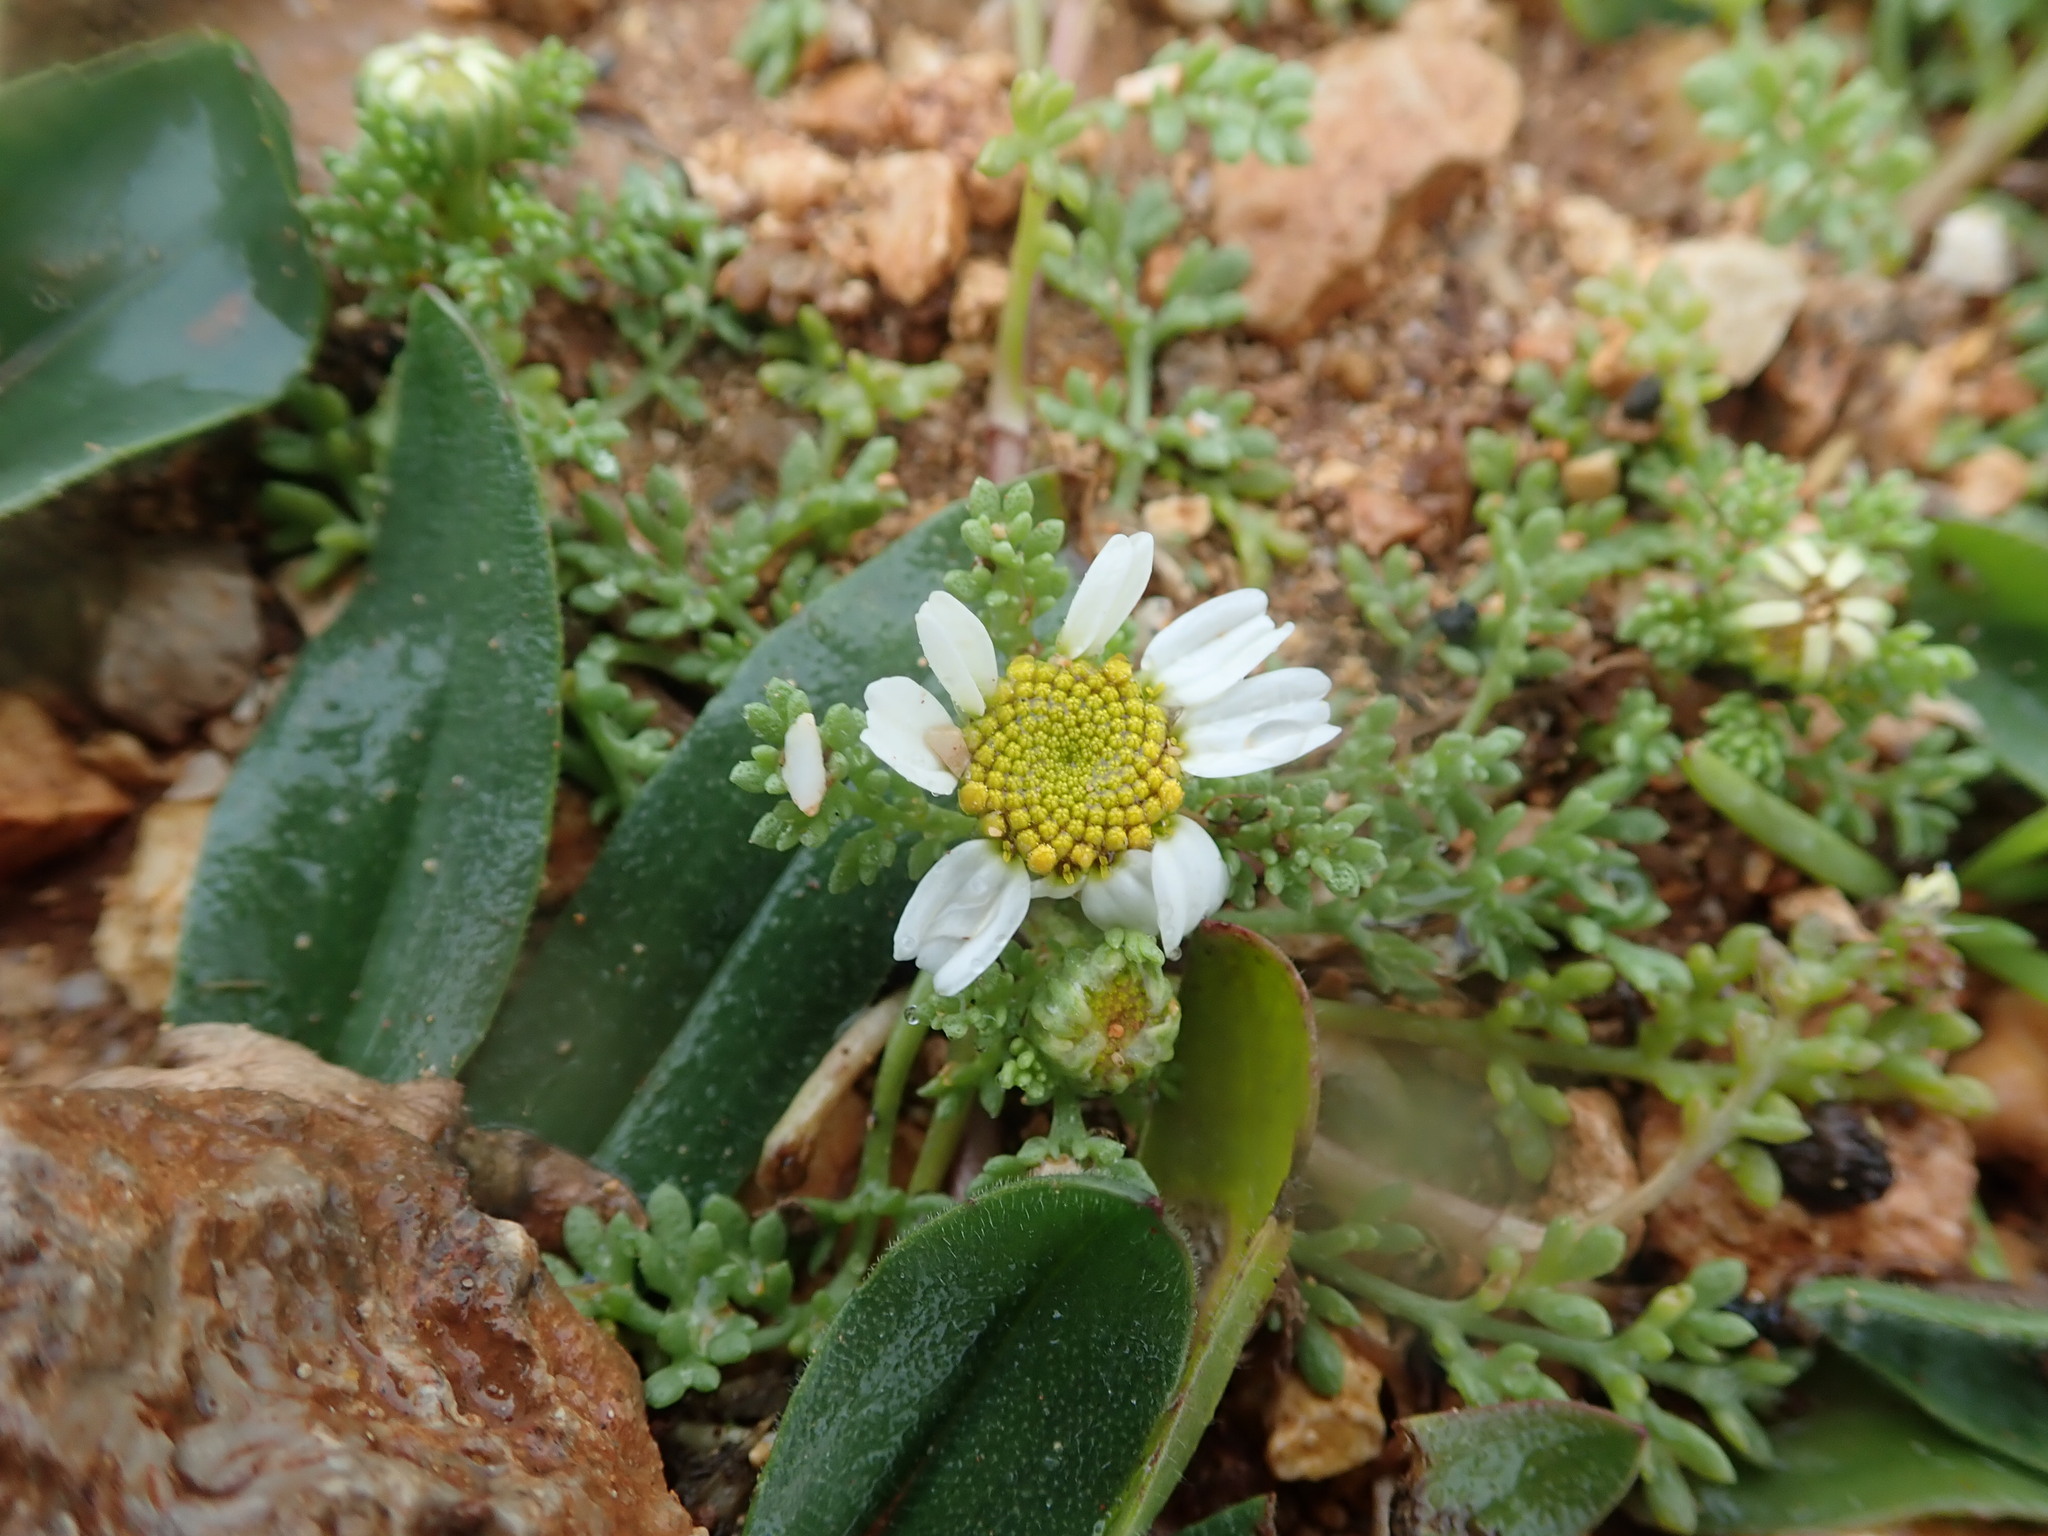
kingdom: Plantae
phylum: Tracheophyta
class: Magnoliopsida
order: Asterales
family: Asteraceae
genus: Anthemis
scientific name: Anthemis secundiramea
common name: Prostrate chamomile
